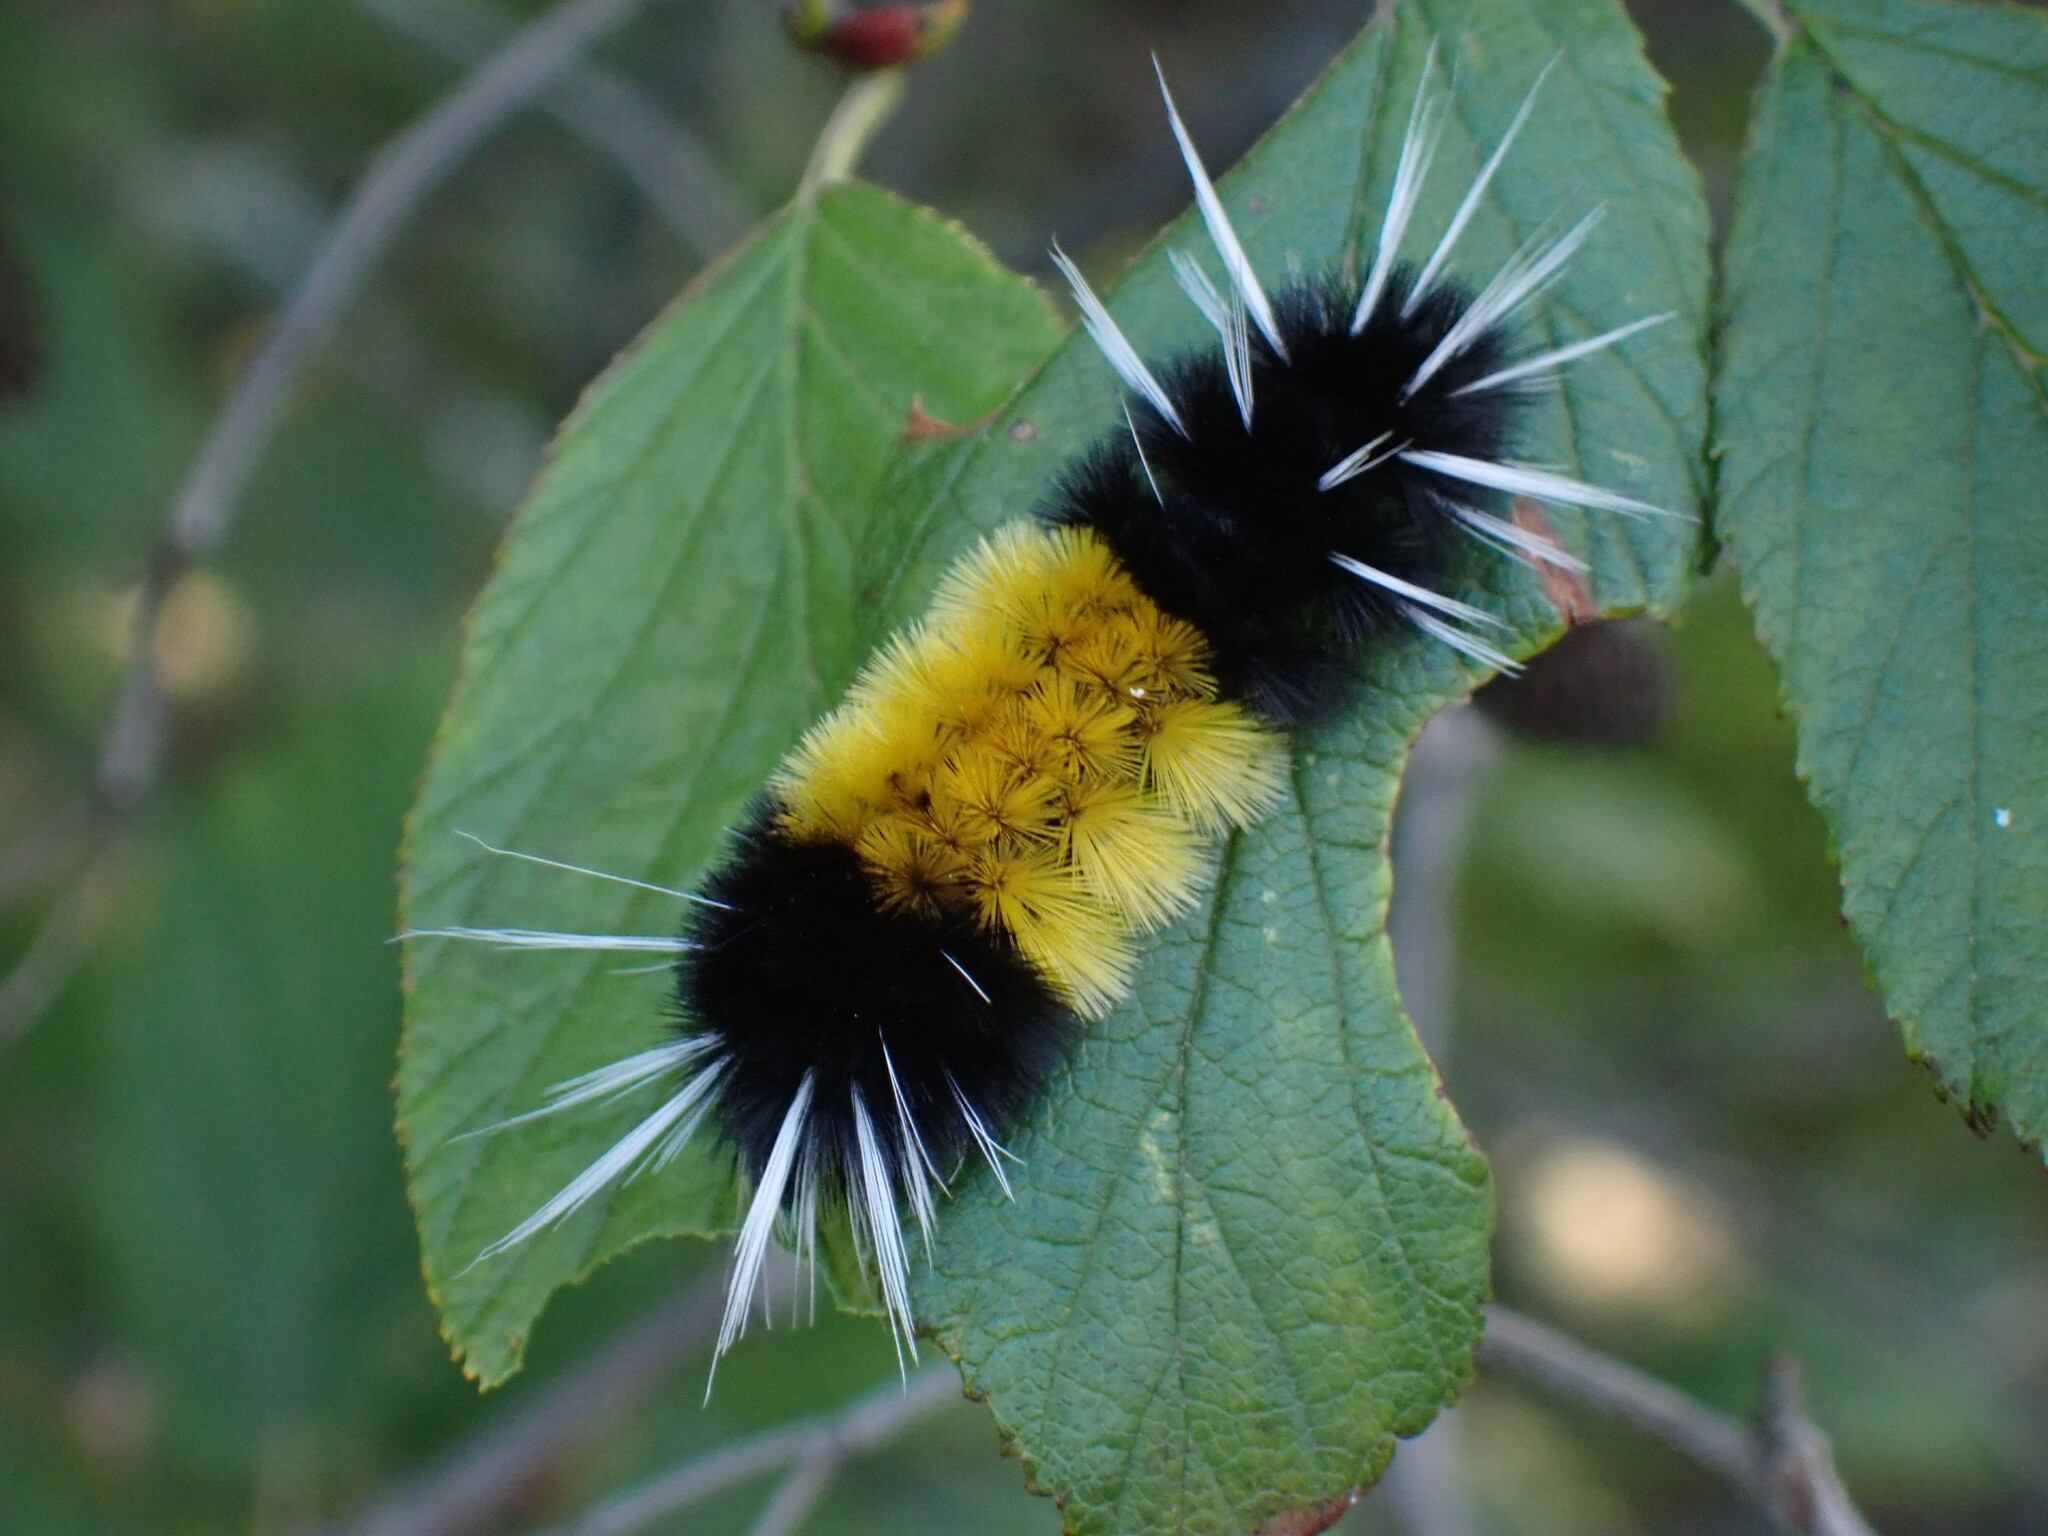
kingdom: Animalia
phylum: Arthropoda
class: Insecta
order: Lepidoptera
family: Erebidae
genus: Lophocampa
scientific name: Lophocampa maculata
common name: Spotted tussock moth
